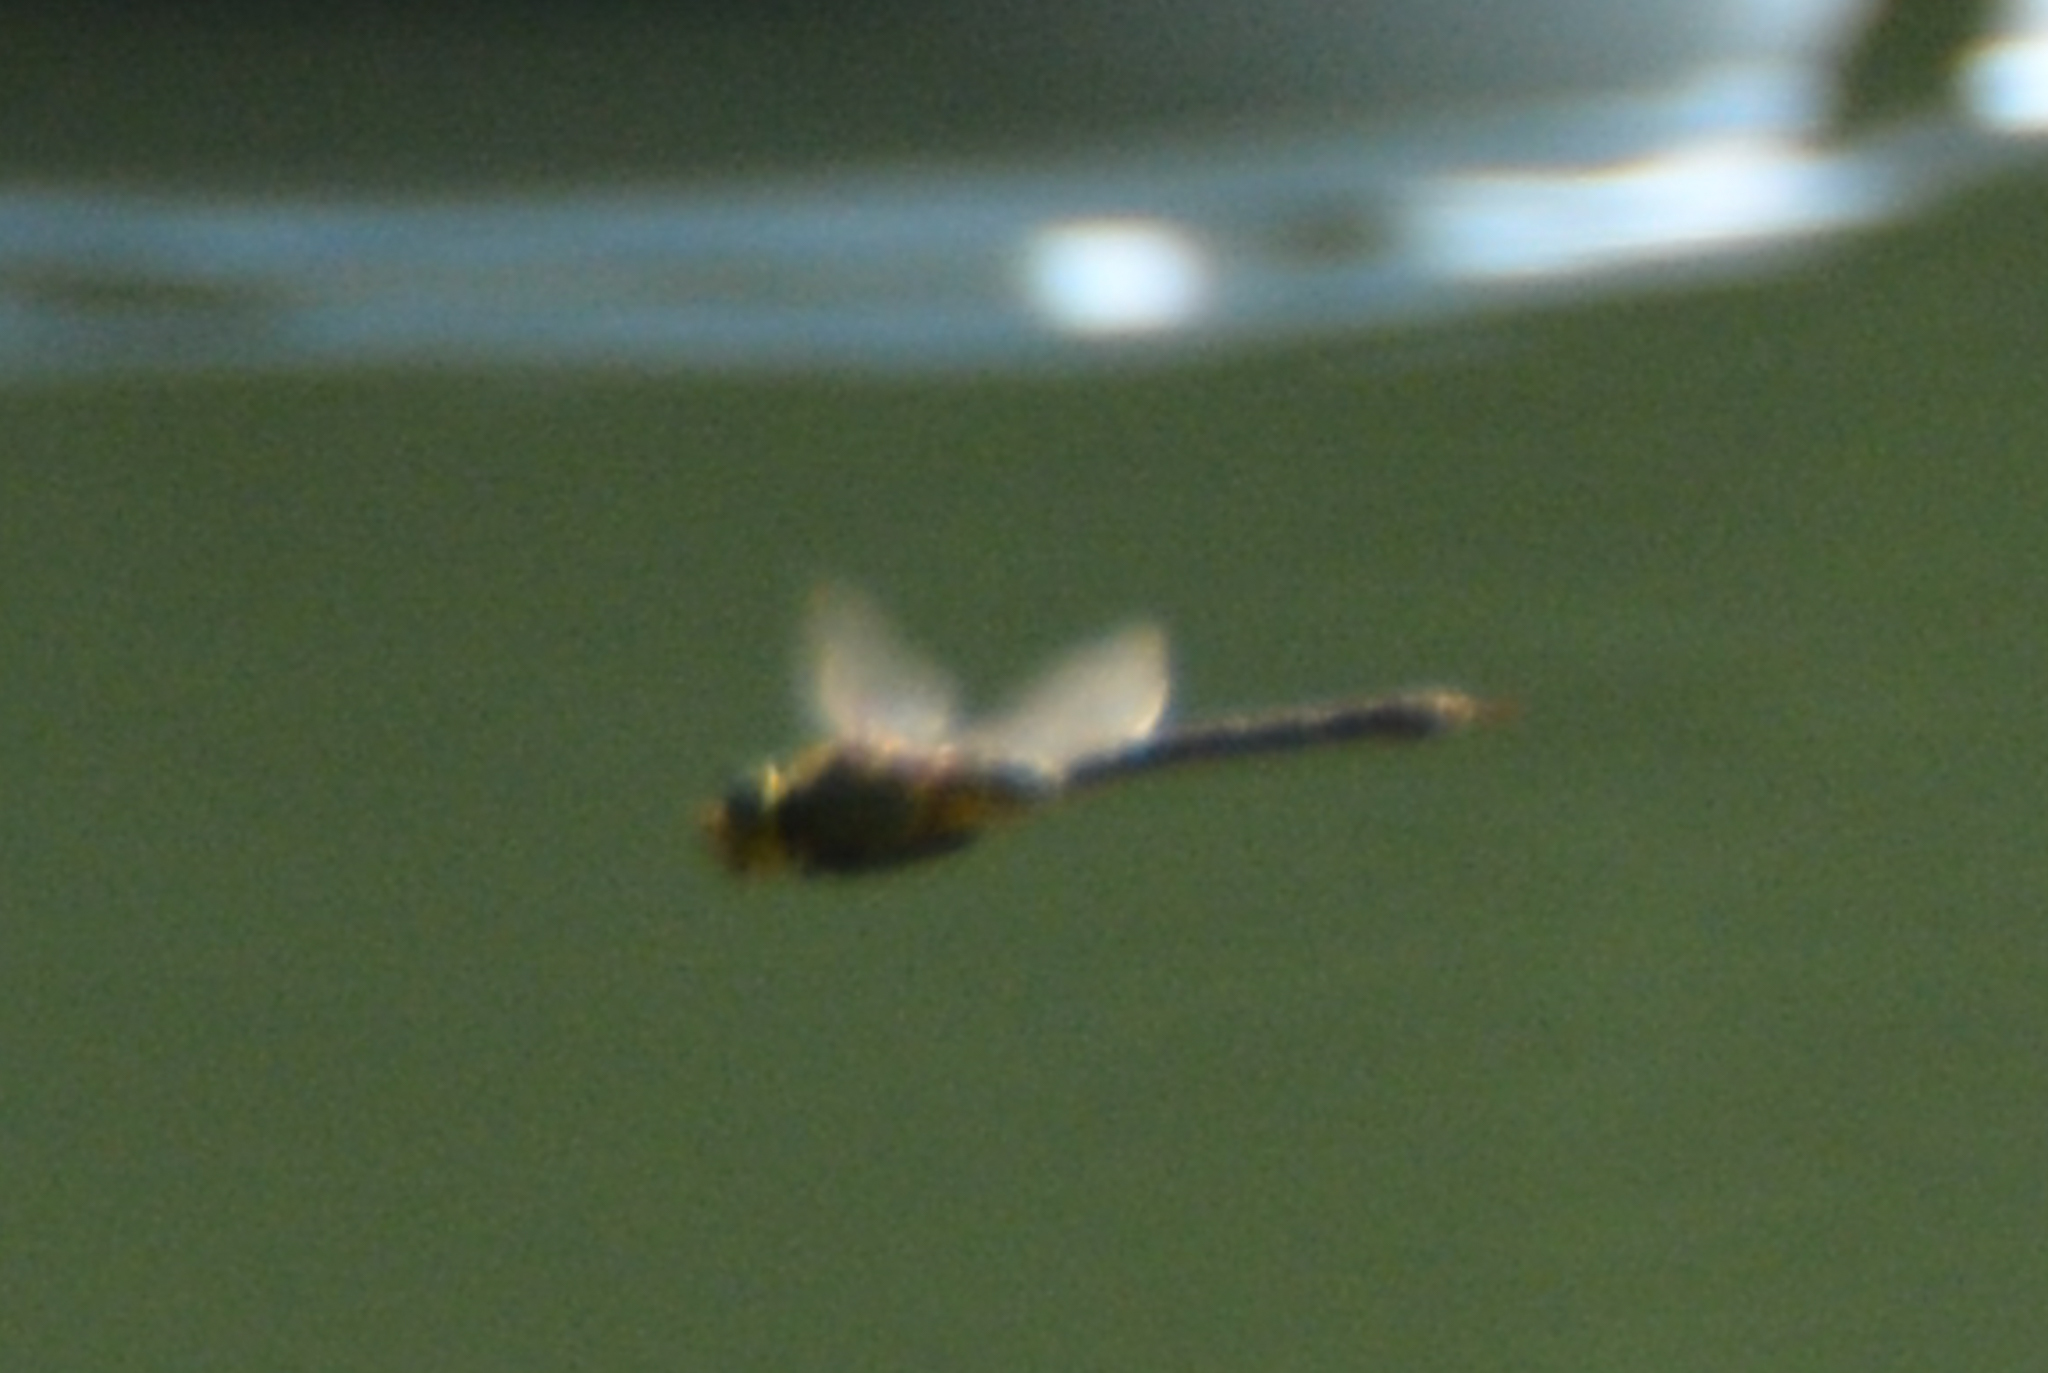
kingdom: Animalia
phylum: Arthropoda
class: Insecta
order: Odonata
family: Aeshnidae
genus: Anax
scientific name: Anax junius
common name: Common green darner
